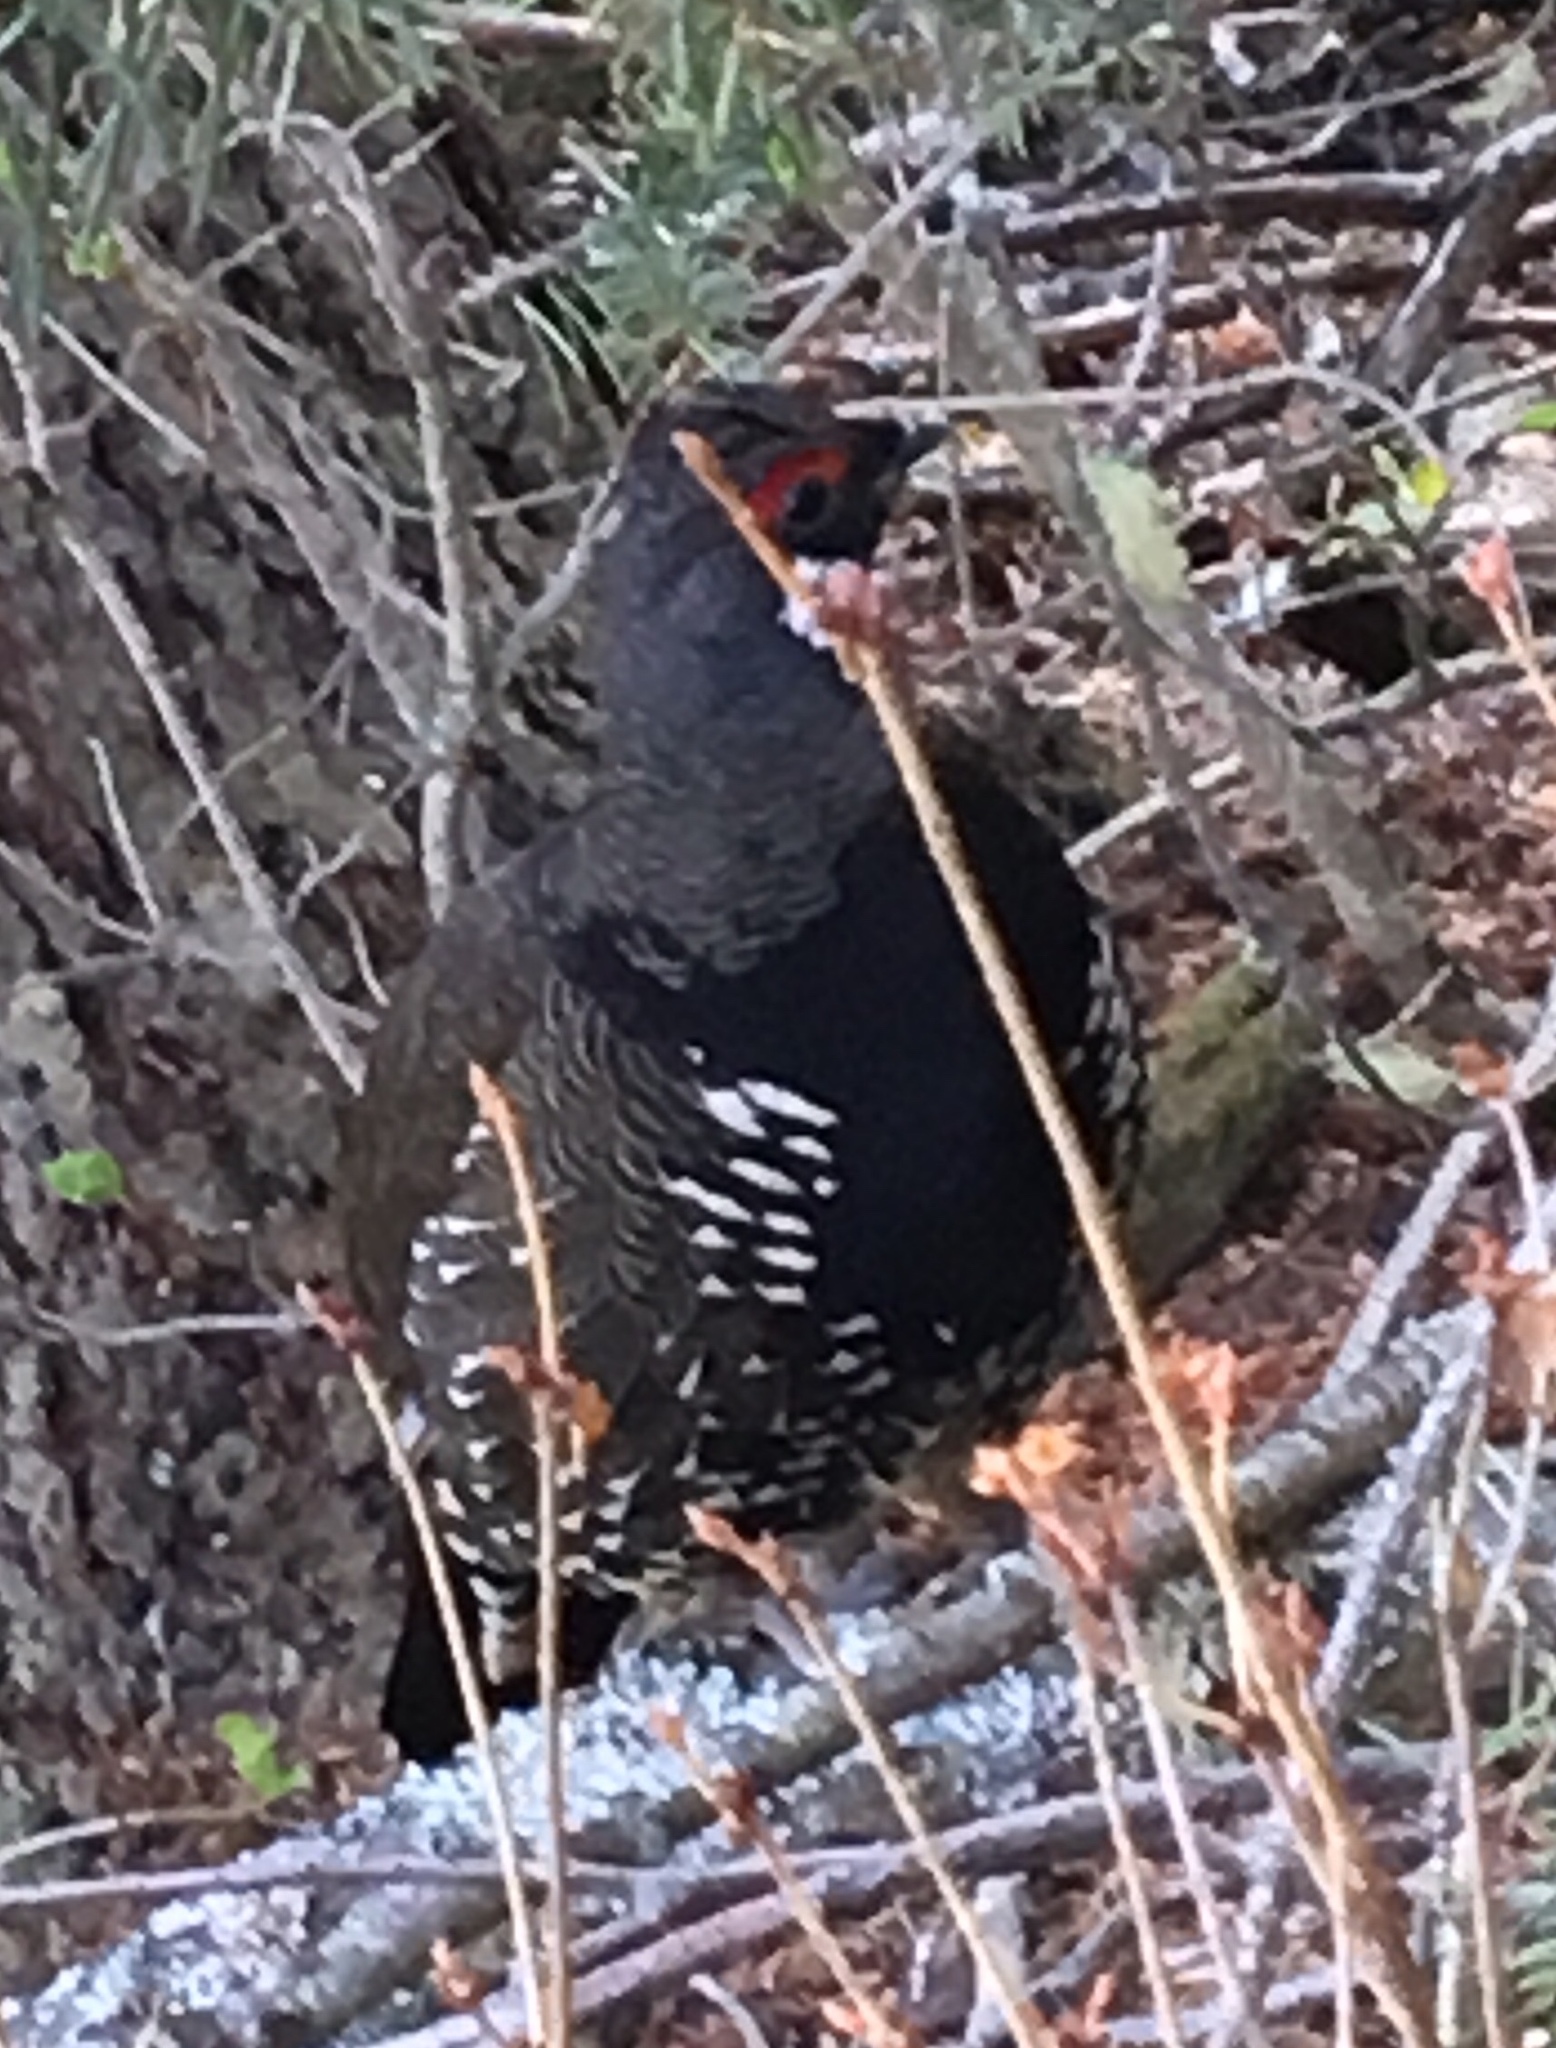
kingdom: Animalia
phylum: Chordata
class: Aves
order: Galliformes
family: Phasianidae
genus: Canachites
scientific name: Canachites canadensis
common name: Spruce grouse
